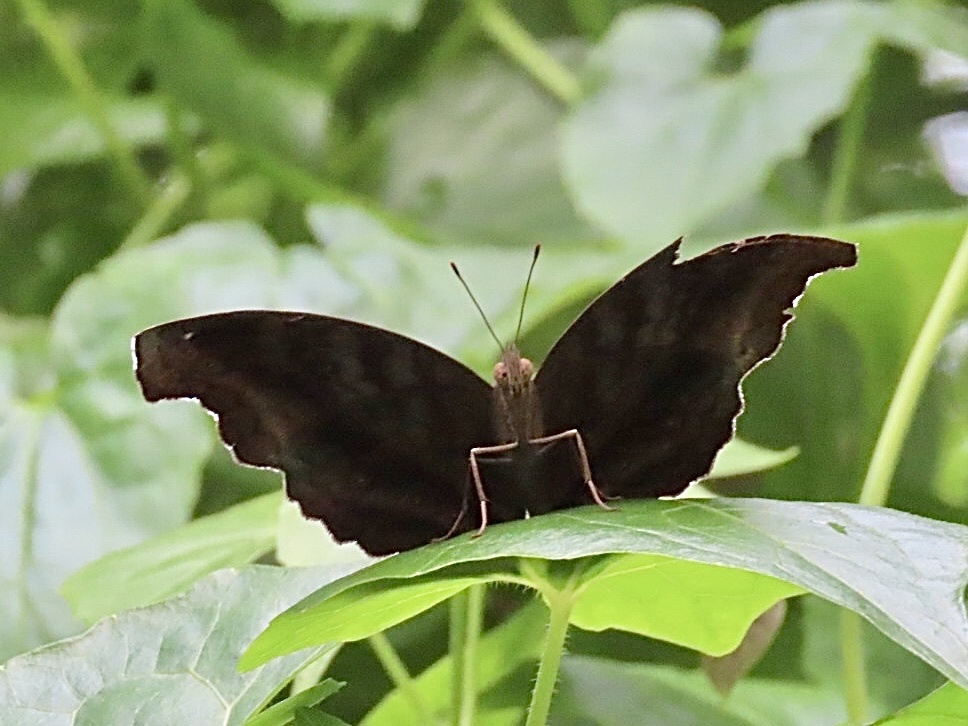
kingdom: Animalia
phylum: Arthropoda
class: Insecta
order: Lepidoptera
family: Nymphalidae
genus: Junonia
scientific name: Junonia iphita
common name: Chocolate pansy
